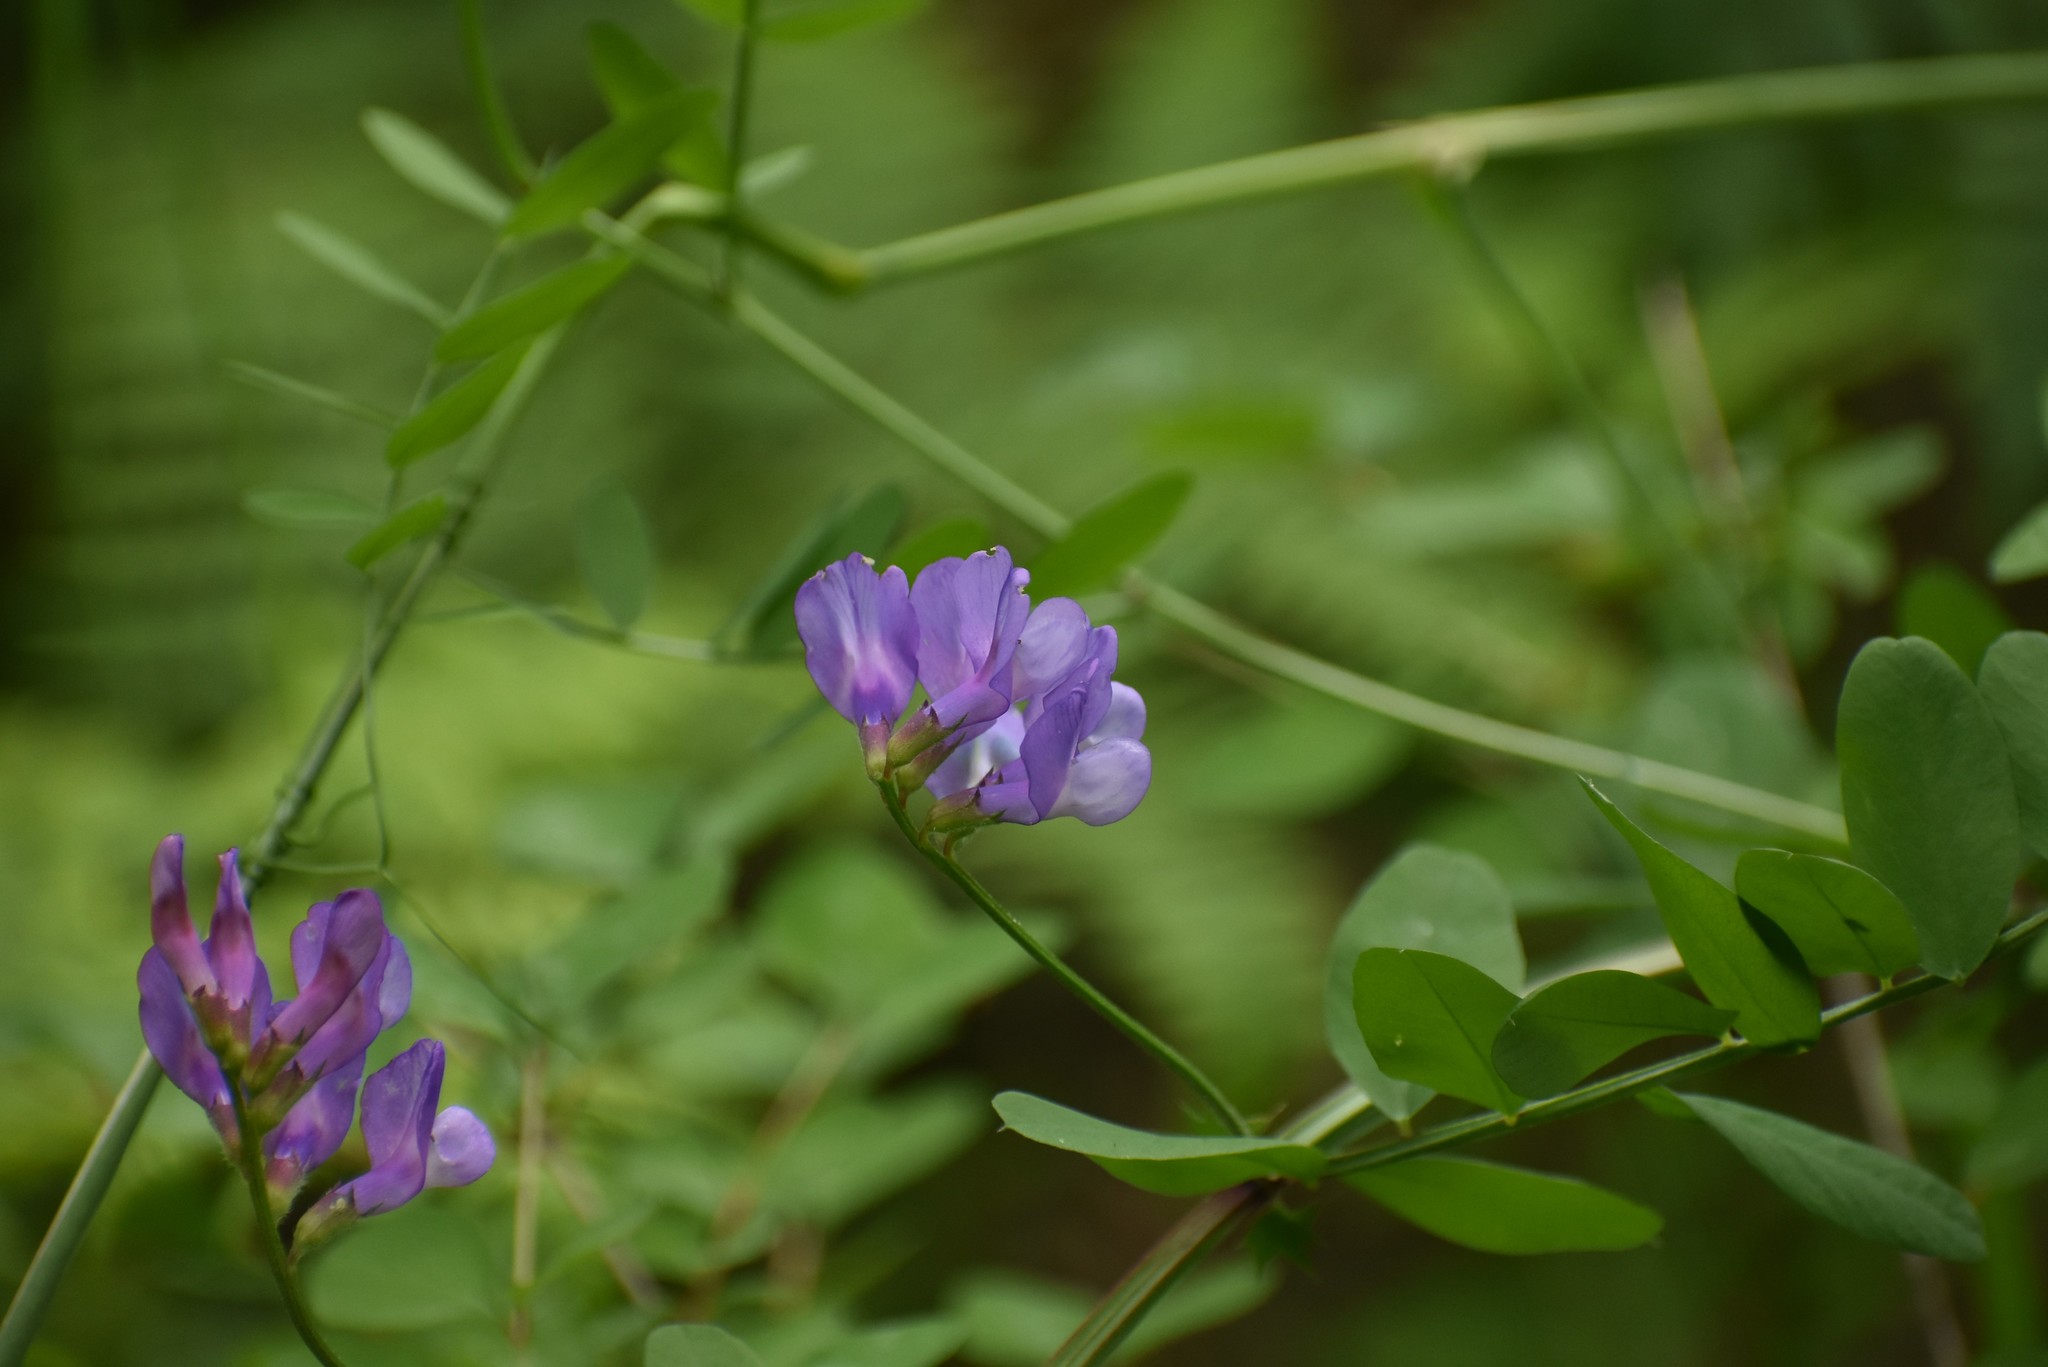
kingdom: Plantae
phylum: Tracheophyta
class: Magnoliopsida
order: Fabales
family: Fabaceae
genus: Vicia
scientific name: Vicia americana
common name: American vetch
